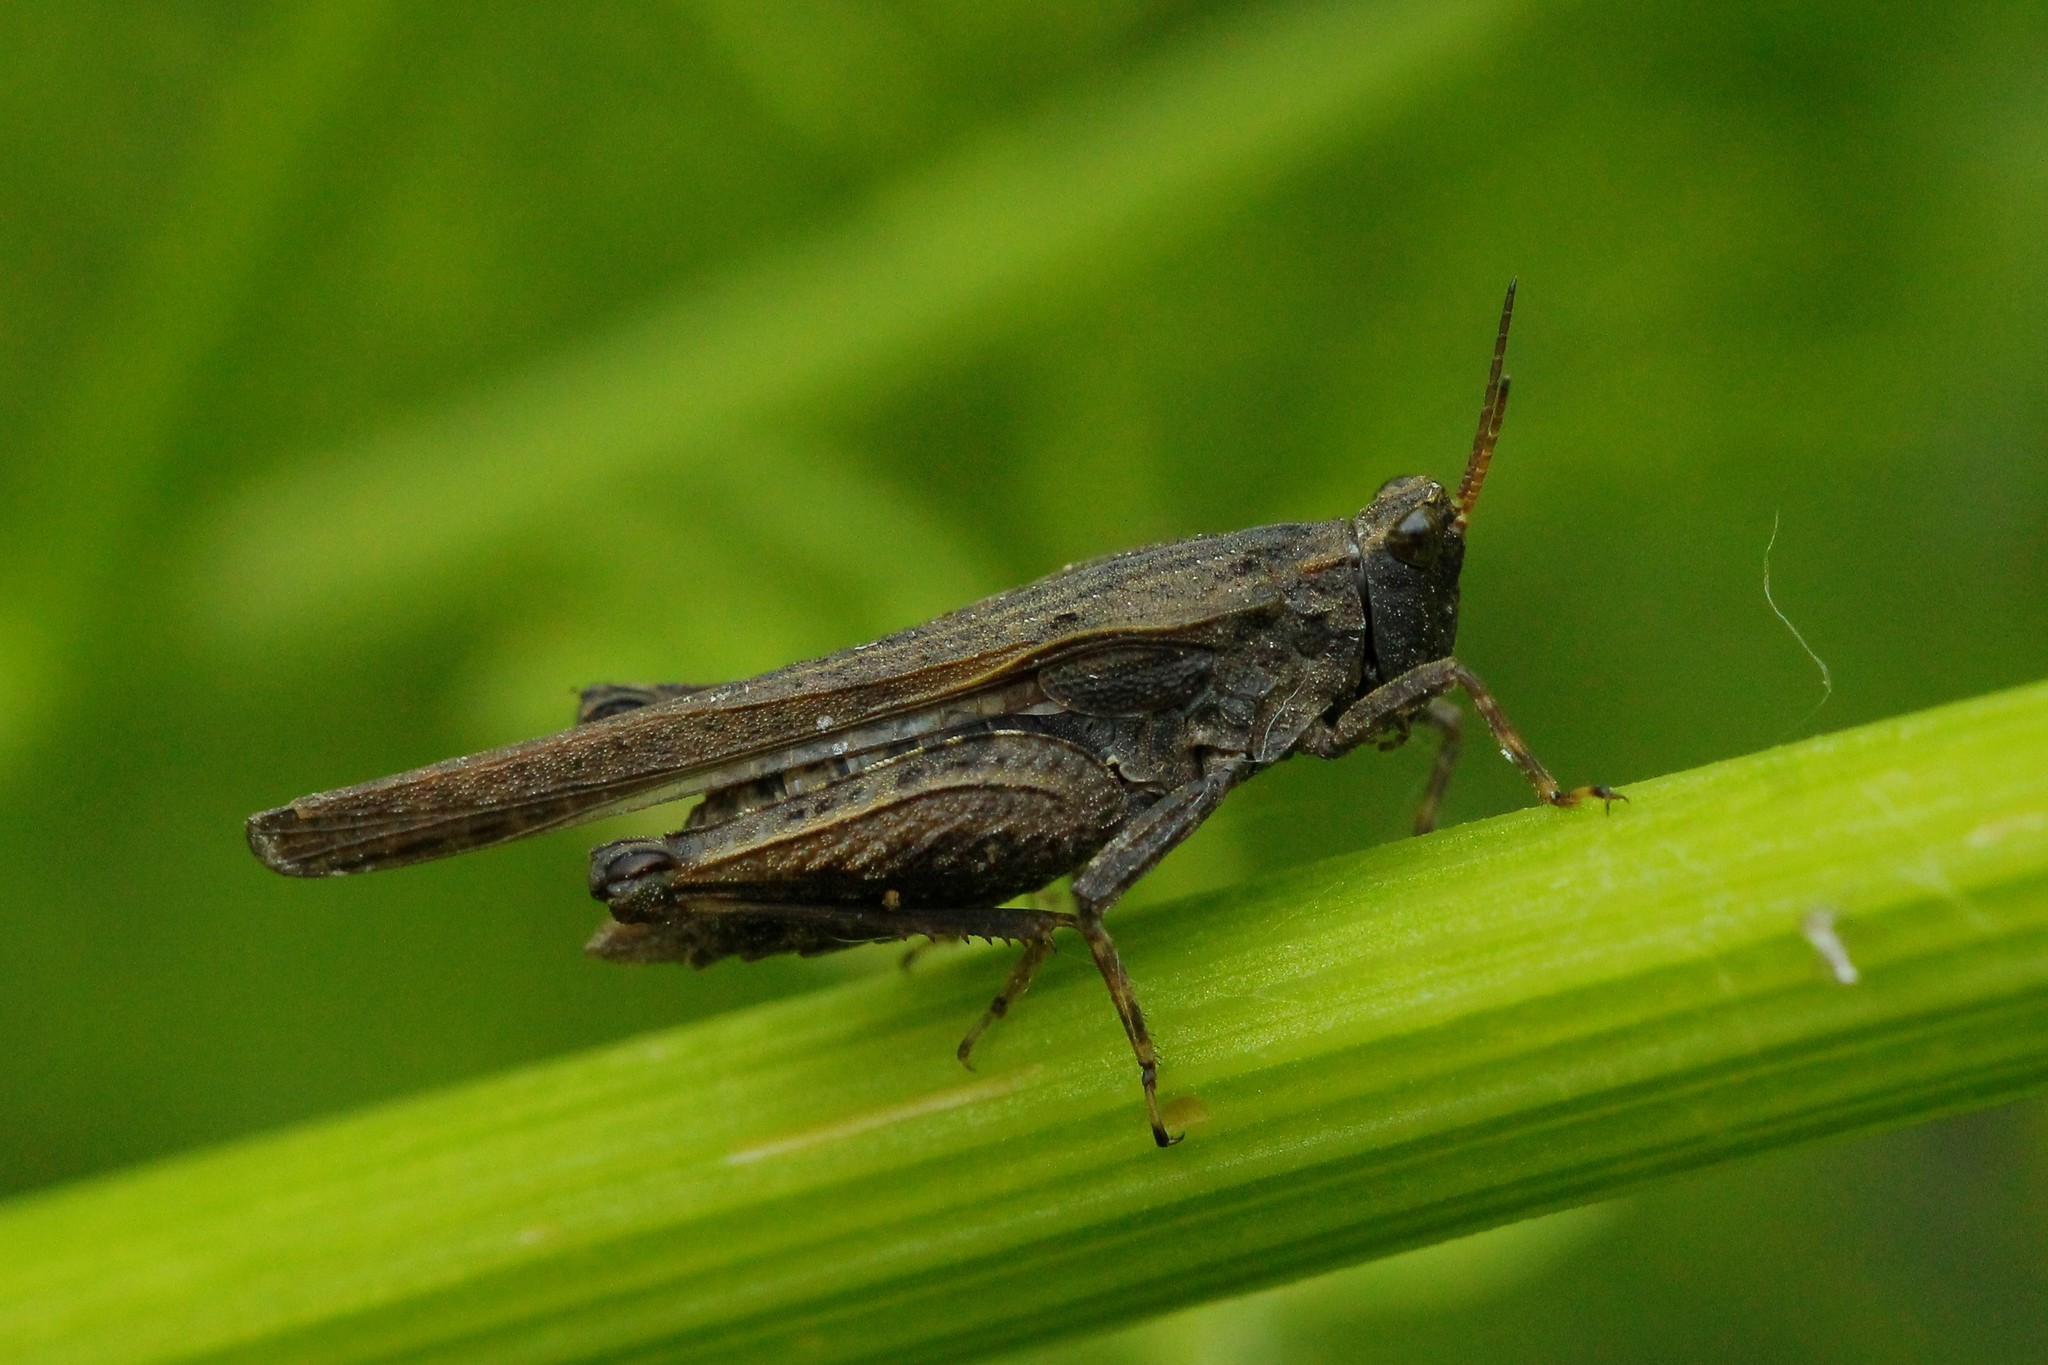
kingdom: Animalia
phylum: Arthropoda
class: Insecta
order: Orthoptera
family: Tetrigidae
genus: Tetrix
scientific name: Tetrix subulata
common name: Slender ground-hopper
